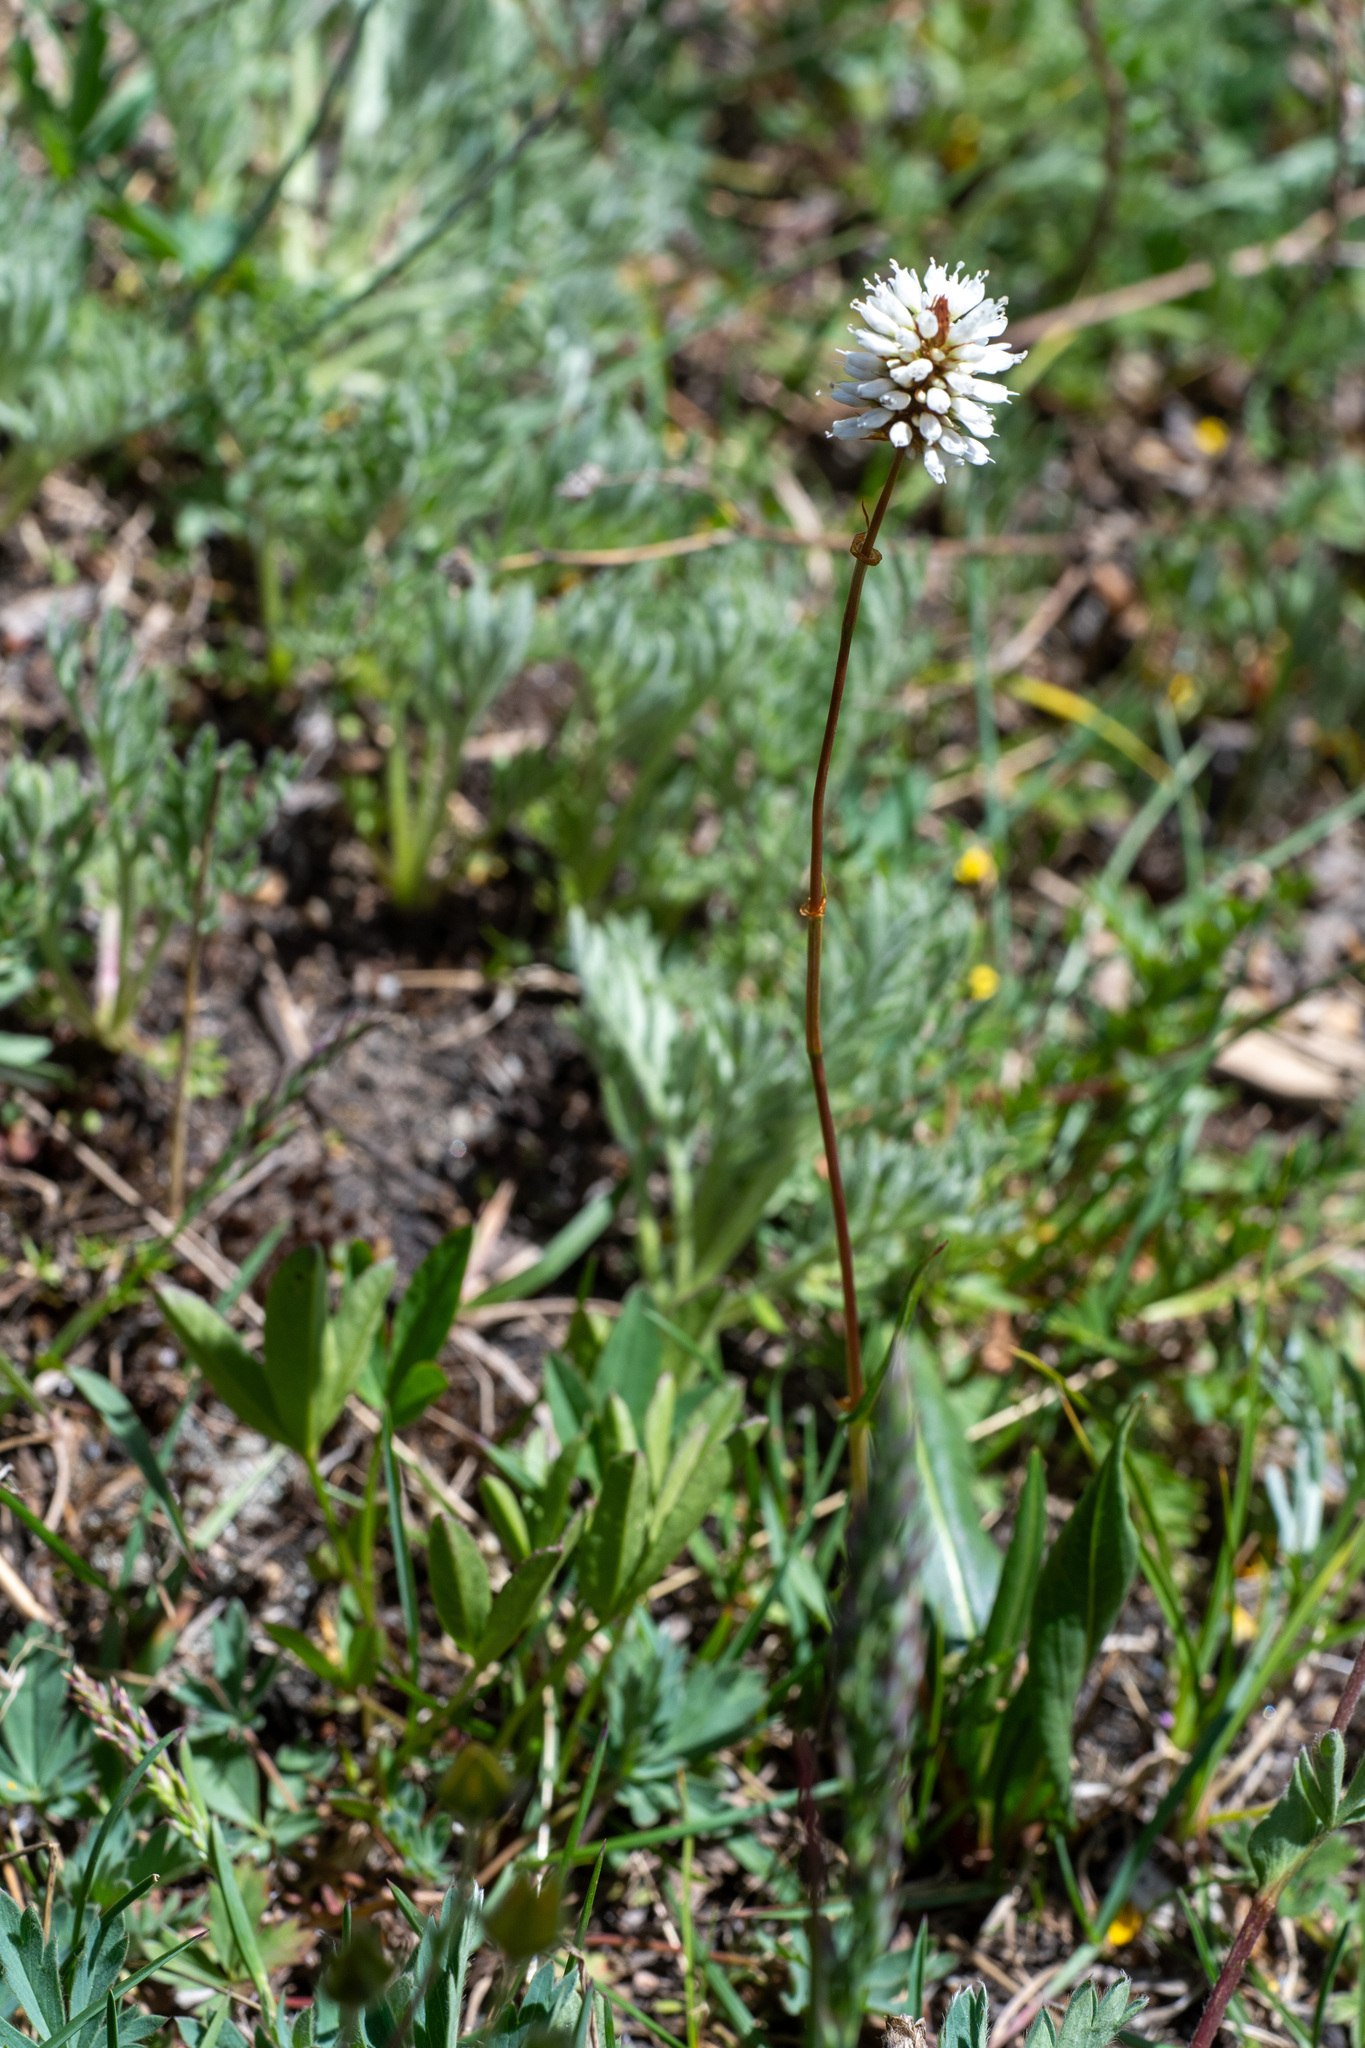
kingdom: Plantae
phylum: Tracheophyta
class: Magnoliopsida
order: Caryophyllales
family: Polygonaceae
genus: Bistorta
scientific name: Bistorta bistortoides
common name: American bistort
